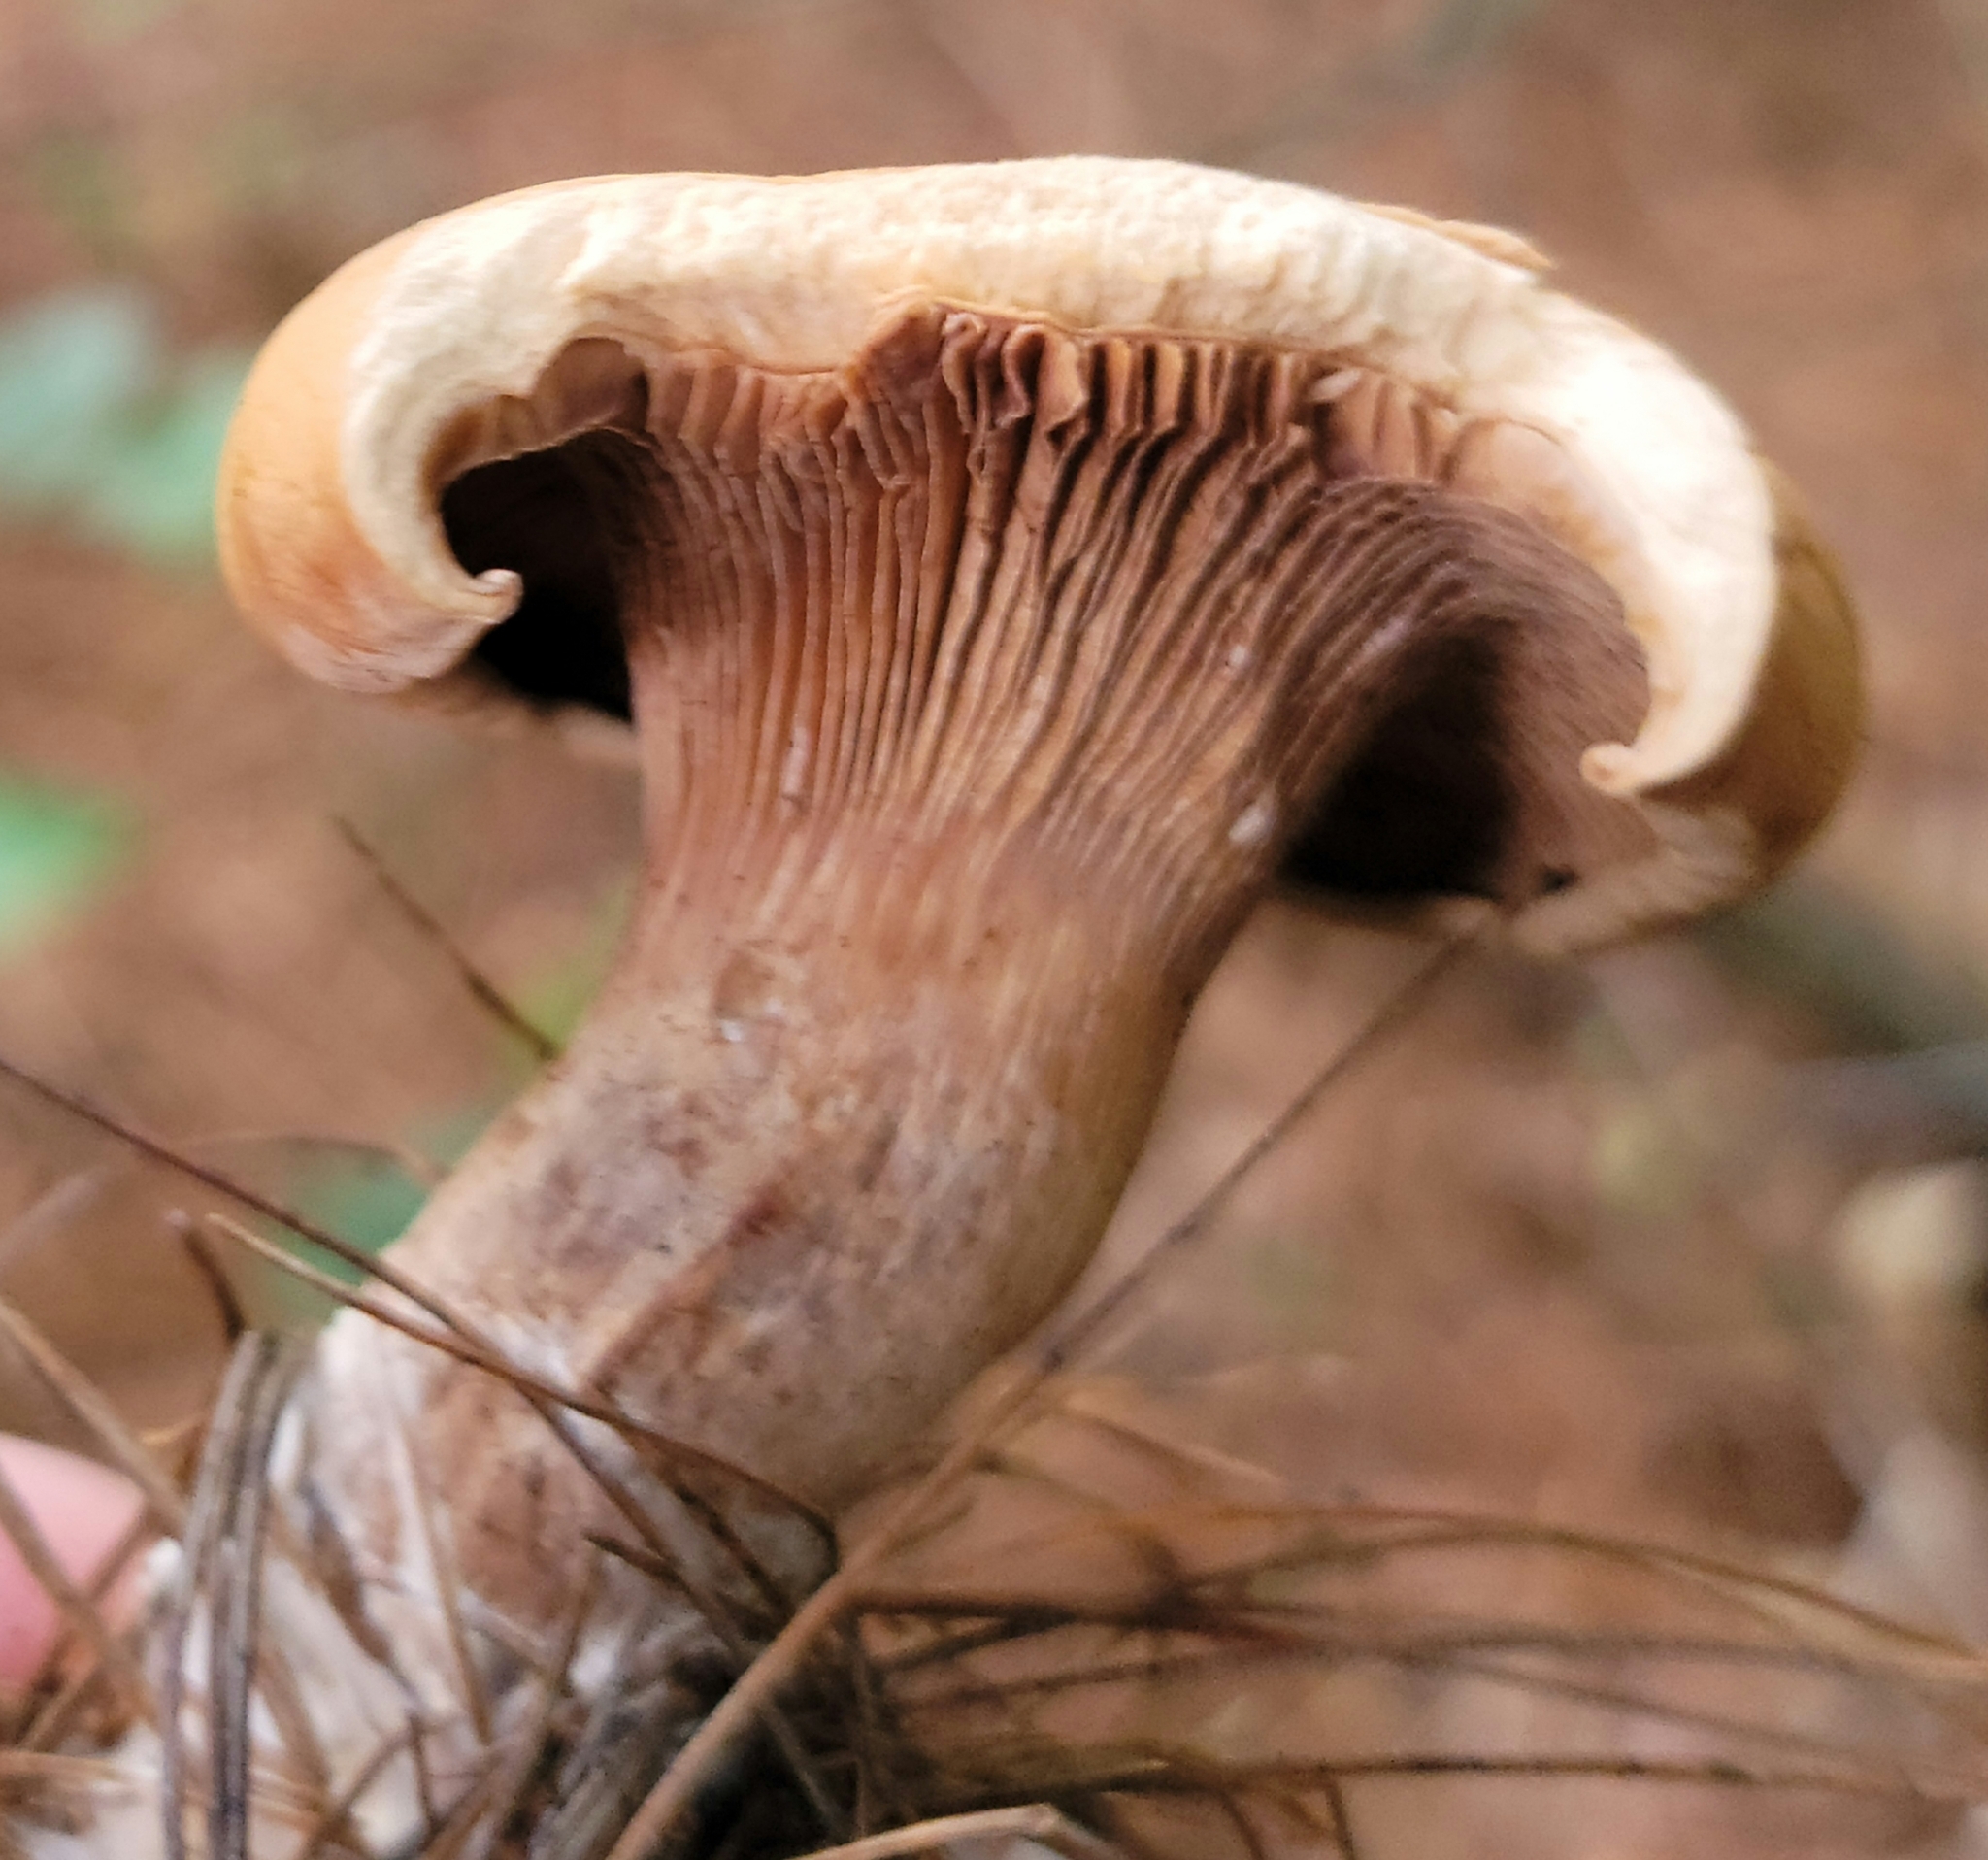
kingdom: Fungi
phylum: Basidiomycota
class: Agaricomycetes
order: Boletales
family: Paxillaceae
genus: Paxillus
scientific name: Paxillus involutus
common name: Brown roll rim
